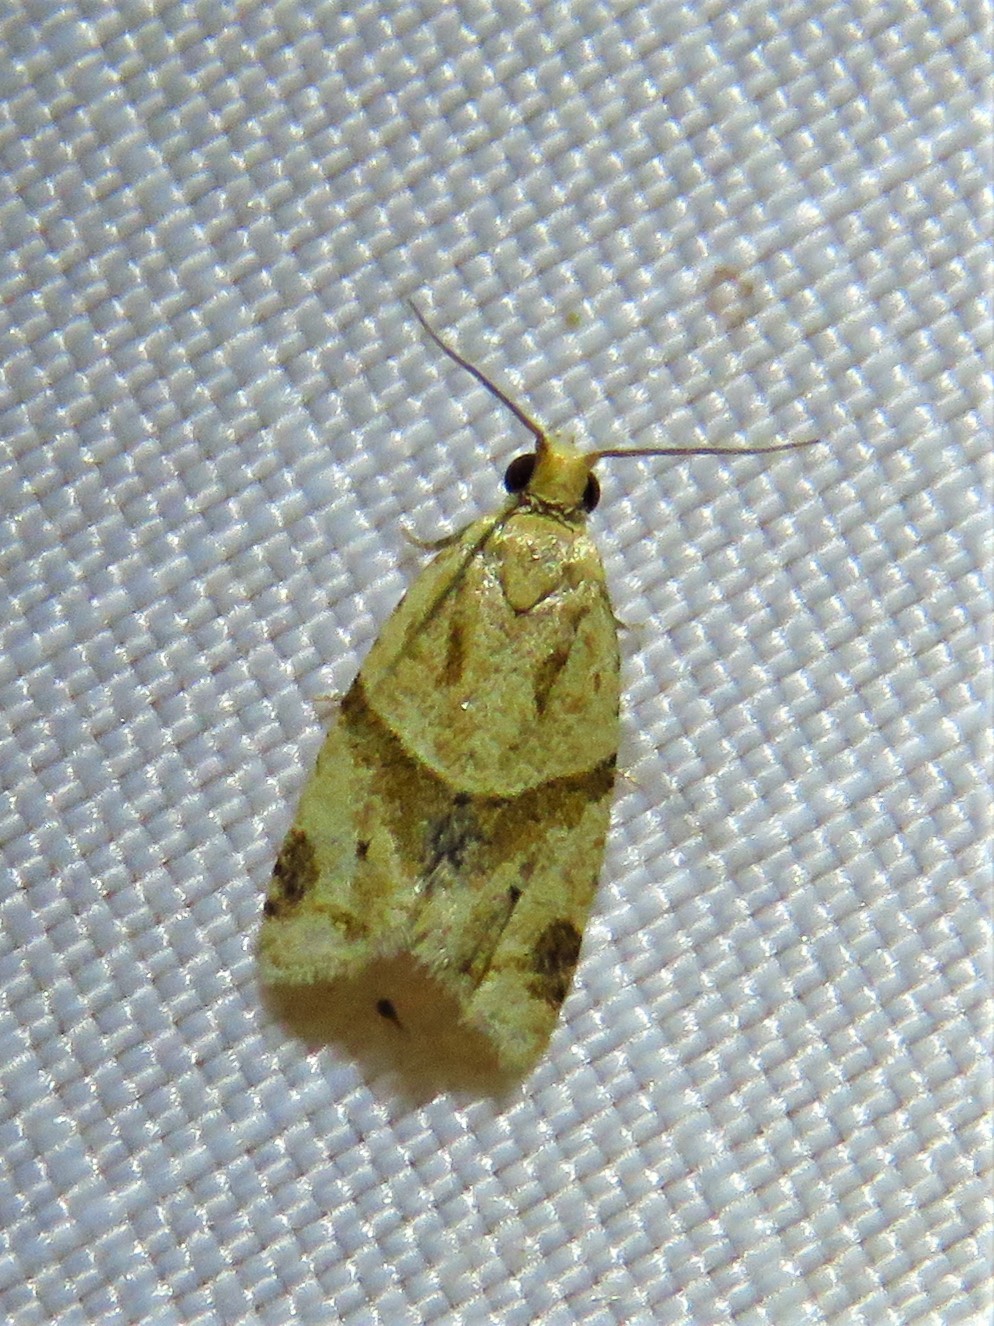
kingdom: Animalia
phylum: Arthropoda
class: Insecta
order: Lepidoptera
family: Tortricidae
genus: Clepsis
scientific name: Clepsis peritana
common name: Garden tortrix
